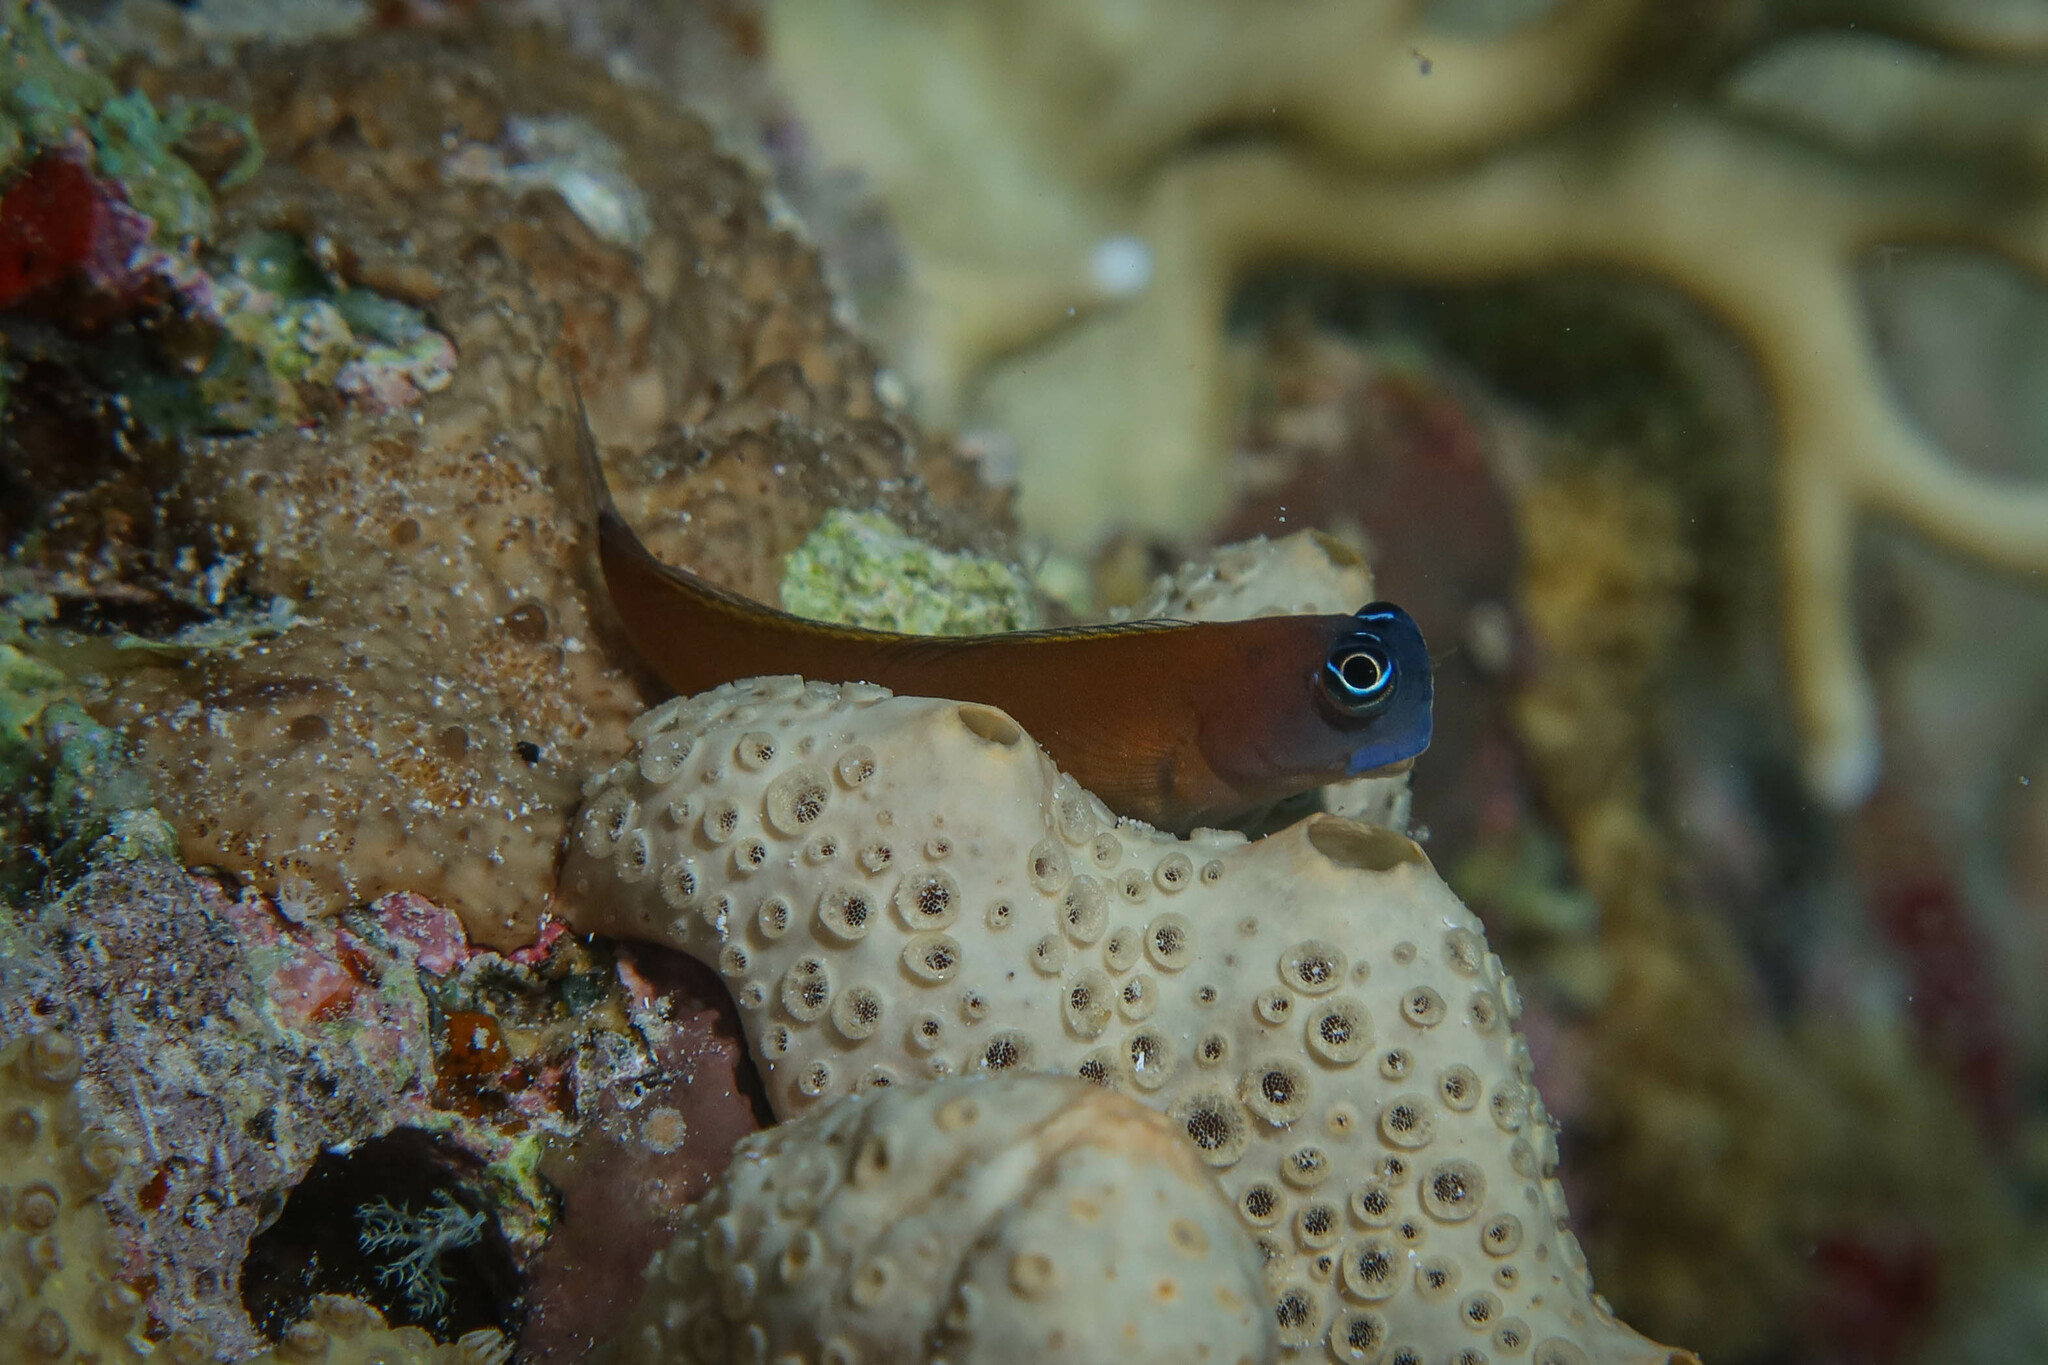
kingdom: Animalia
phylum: Chordata
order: Perciformes
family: Blenniidae
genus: Ecsenius
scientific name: Ecsenius aroni
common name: Aron's blenny
